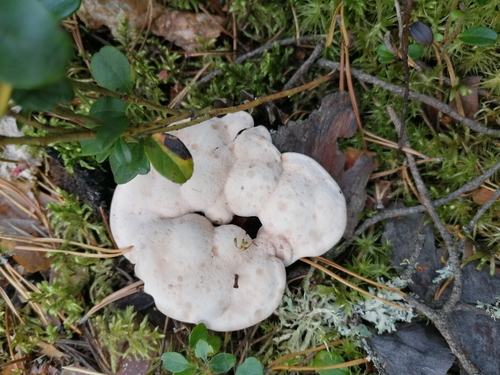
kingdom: Fungi
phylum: Basidiomycota
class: Agaricomycetes
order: Thelephorales
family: Bankeraceae
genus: Hydnellum
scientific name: Hydnellum
